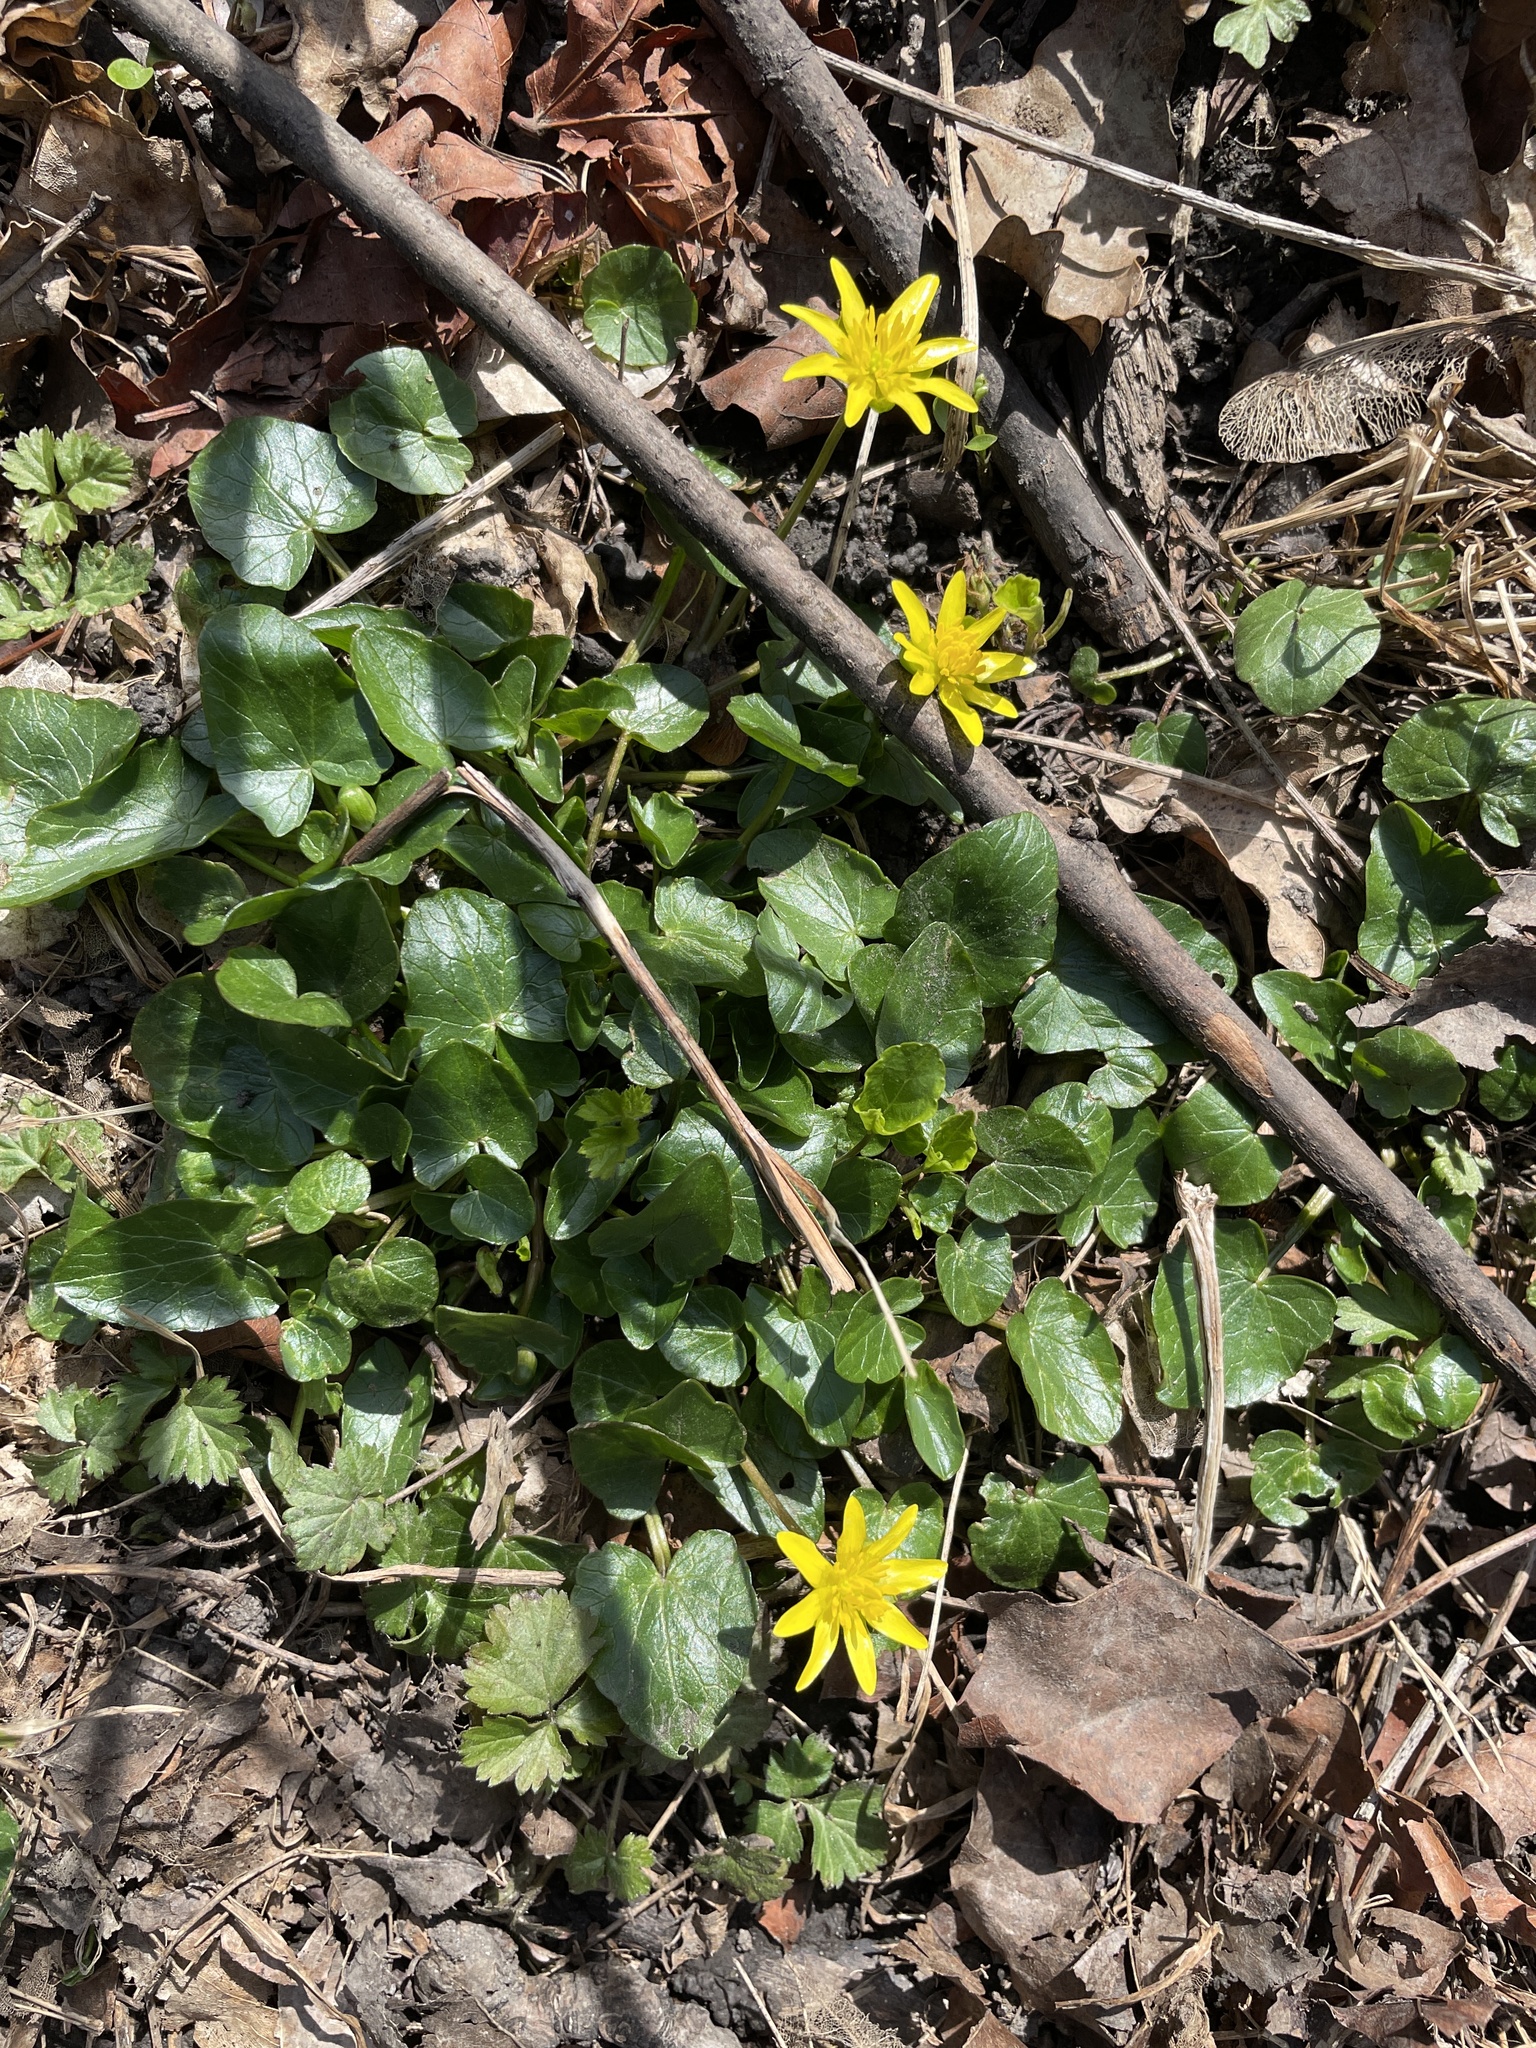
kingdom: Plantae
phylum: Tracheophyta
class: Magnoliopsida
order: Ranunculales
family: Ranunculaceae
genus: Ficaria
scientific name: Ficaria verna
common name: Lesser celandine
